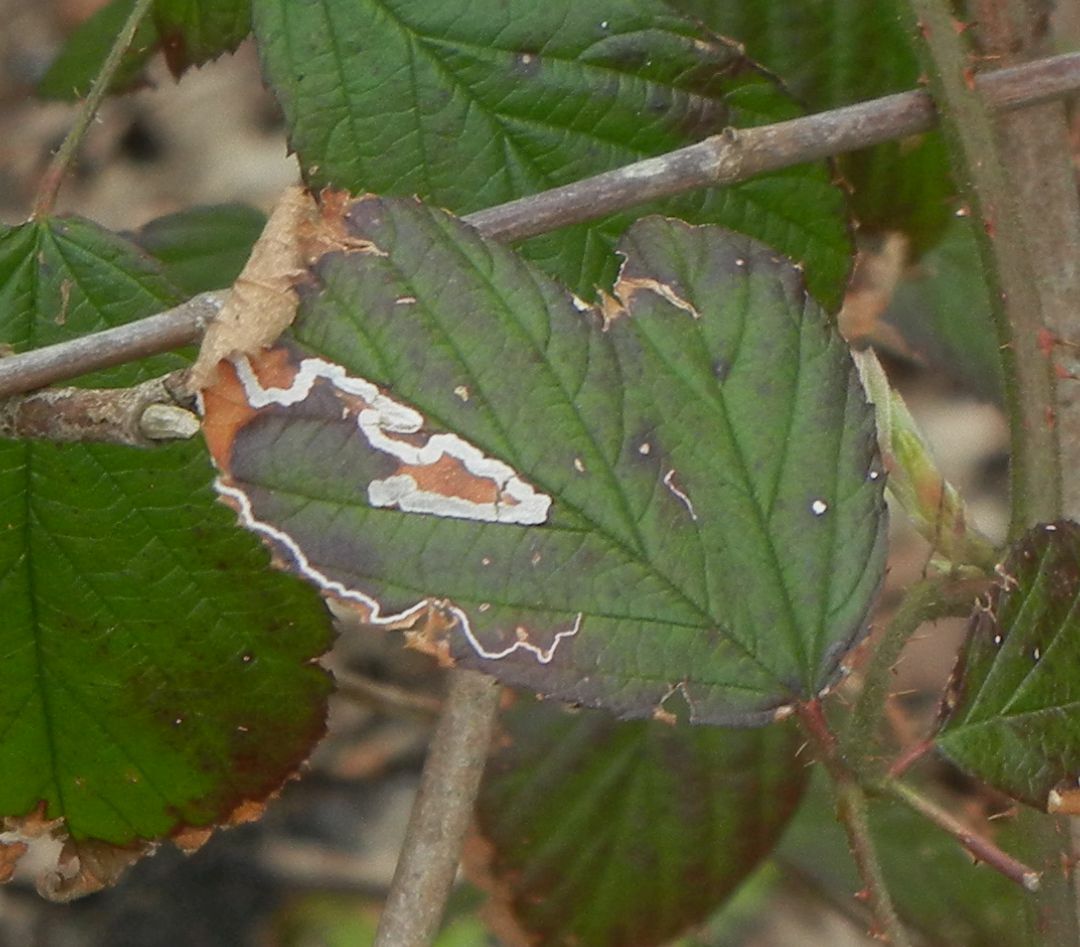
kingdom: Animalia
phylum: Arthropoda
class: Insecta
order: Lepidoptera
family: Nepticulidae
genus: Stigmella
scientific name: Stigmella aurella
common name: Golden pigmy
